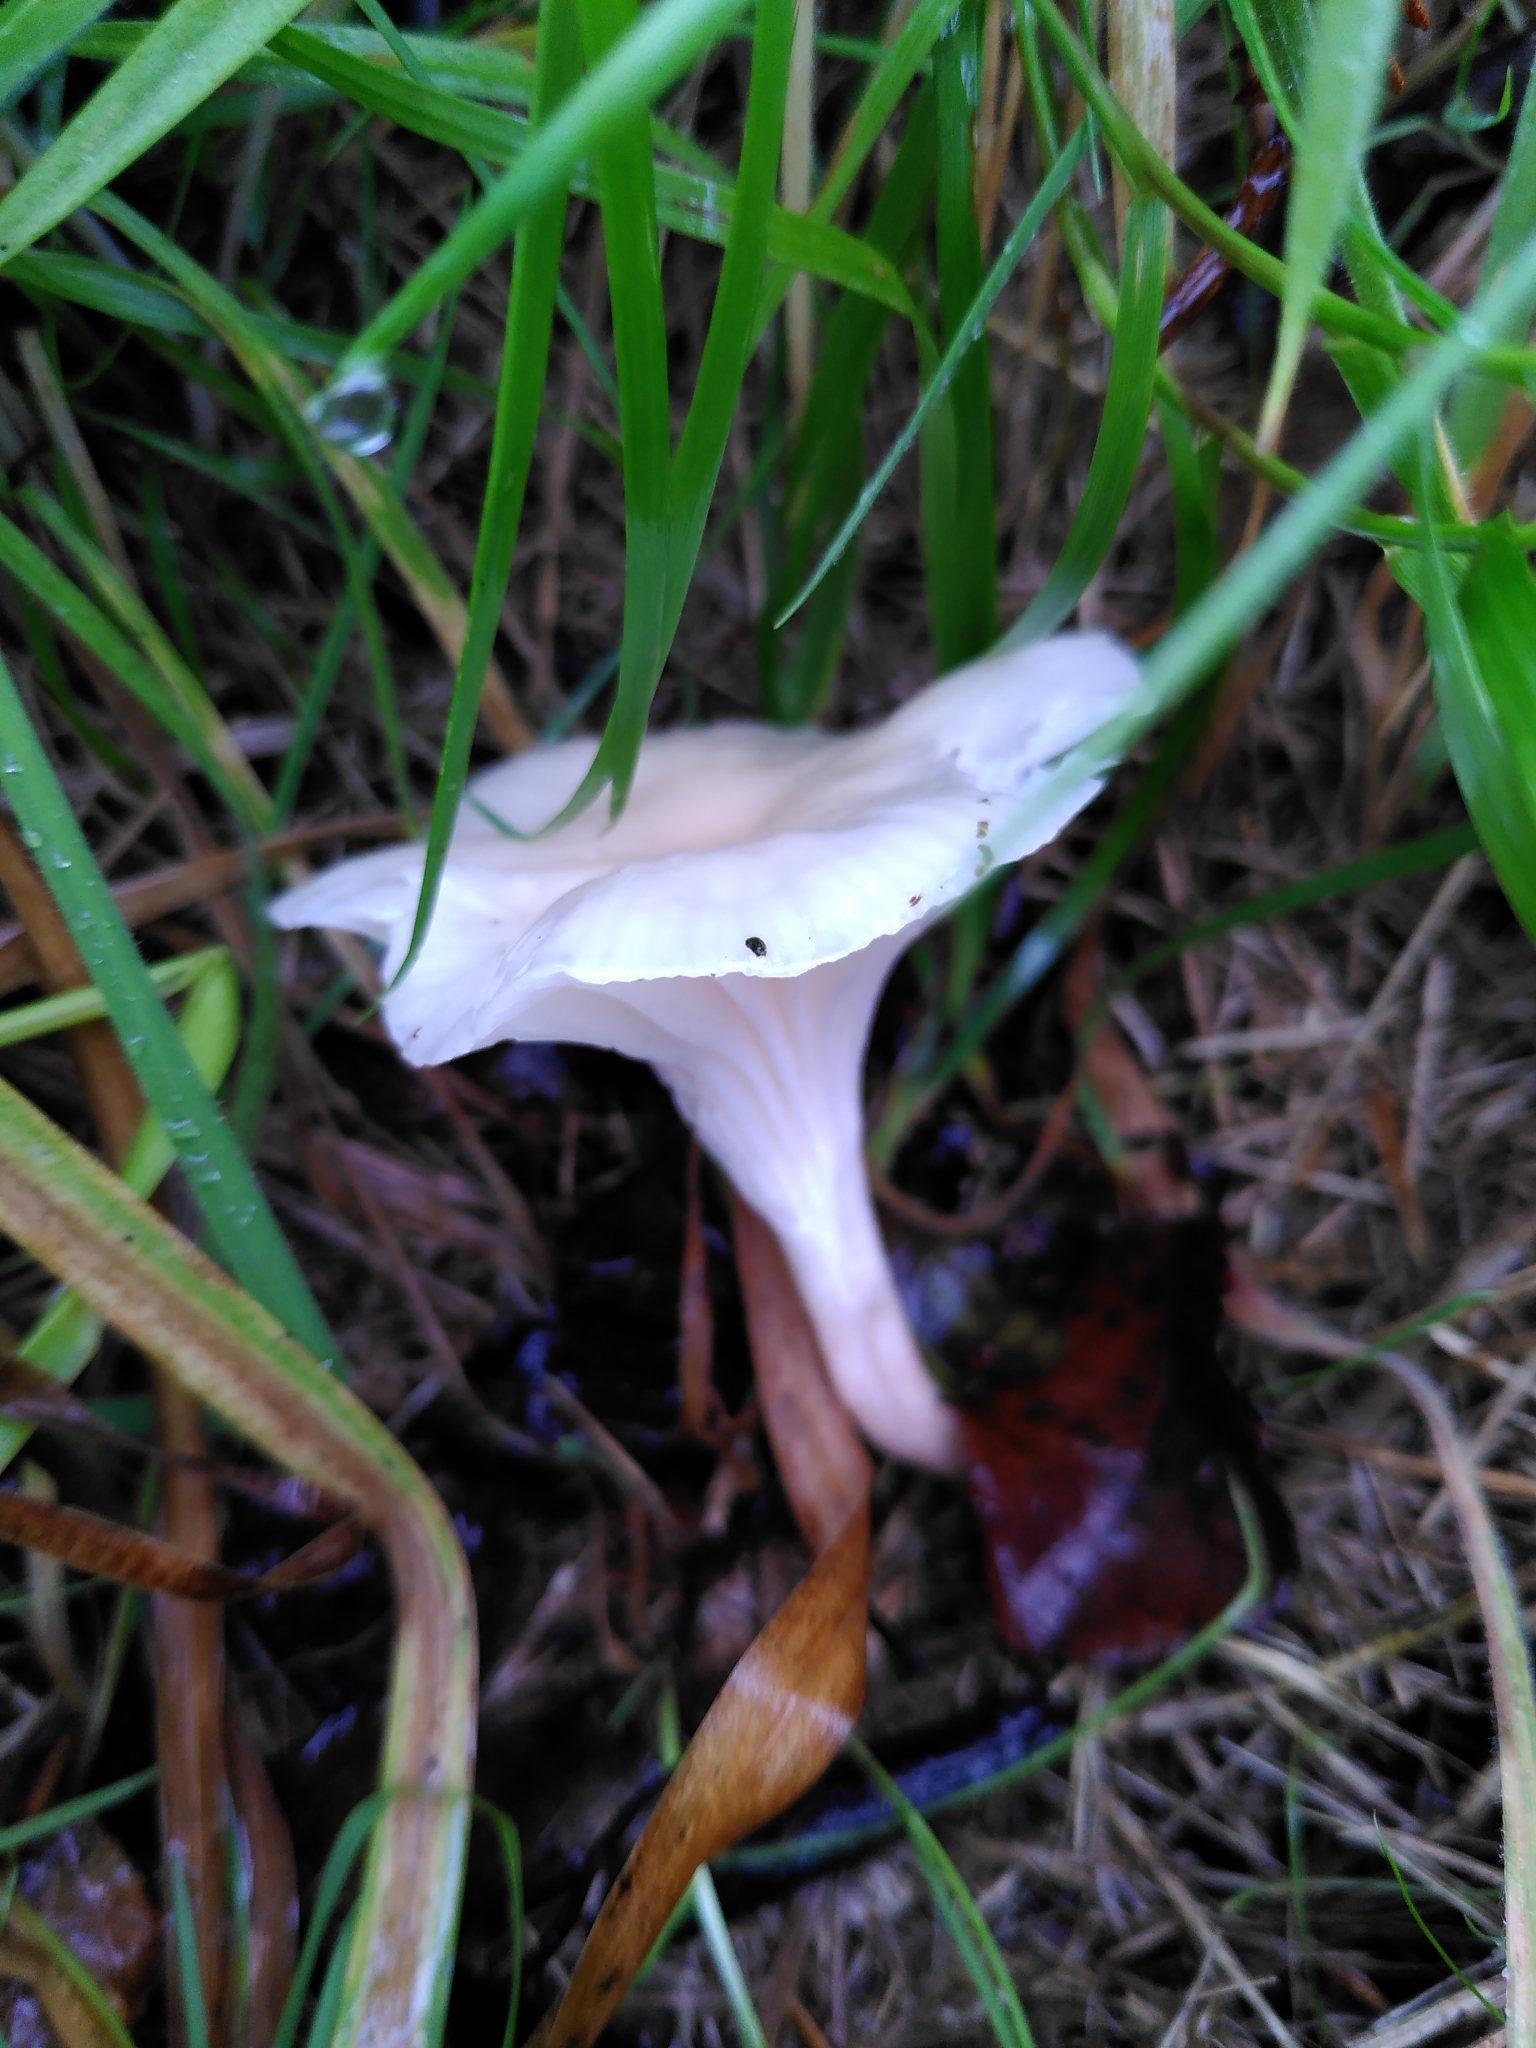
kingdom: Fungi
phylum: Basidiomycota
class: Agaricomycetes
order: Agaricales
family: Hygrophoraceae
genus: Cuphophyllus
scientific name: Cuphophyllus virgineus
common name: Snowy waxcap
